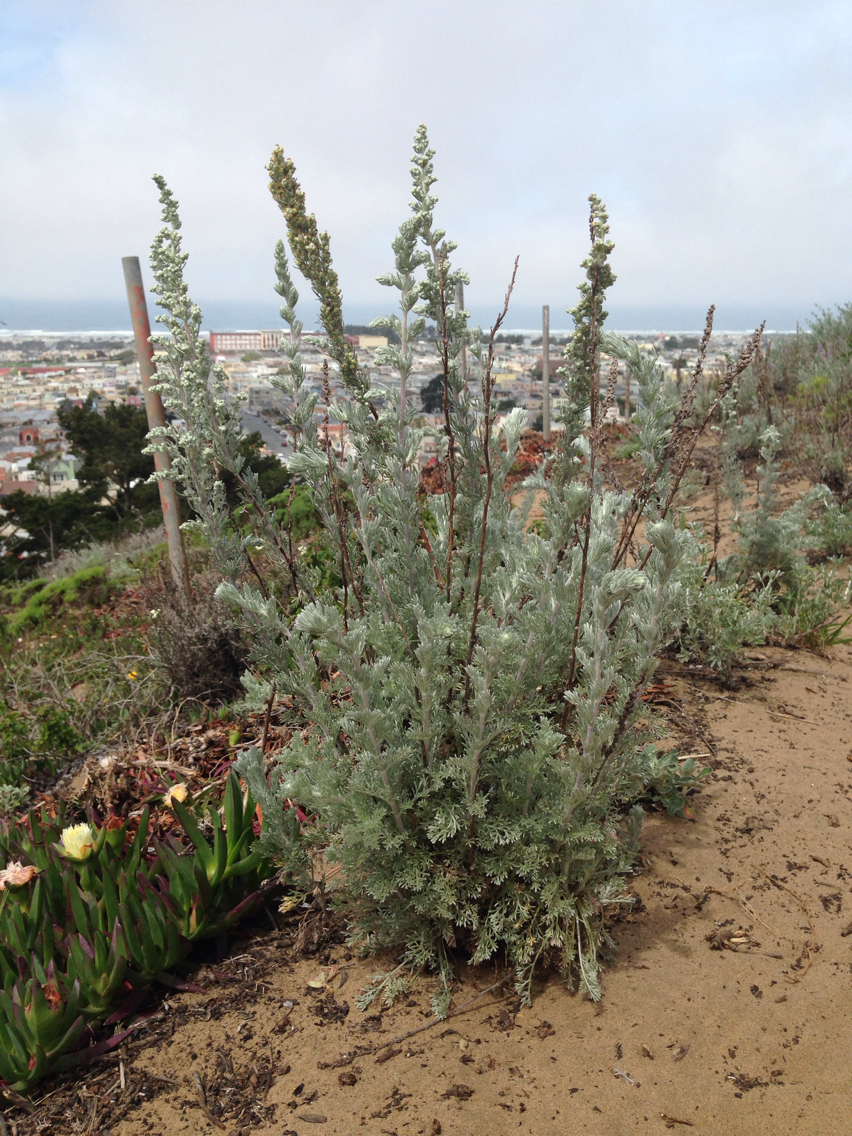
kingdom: Plantae
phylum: Tracheophyta
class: Magnoliopsida
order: Asterales
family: Asteraceae
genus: Artemisia
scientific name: Artemisia pycnocephala
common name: Coastal sagewort
